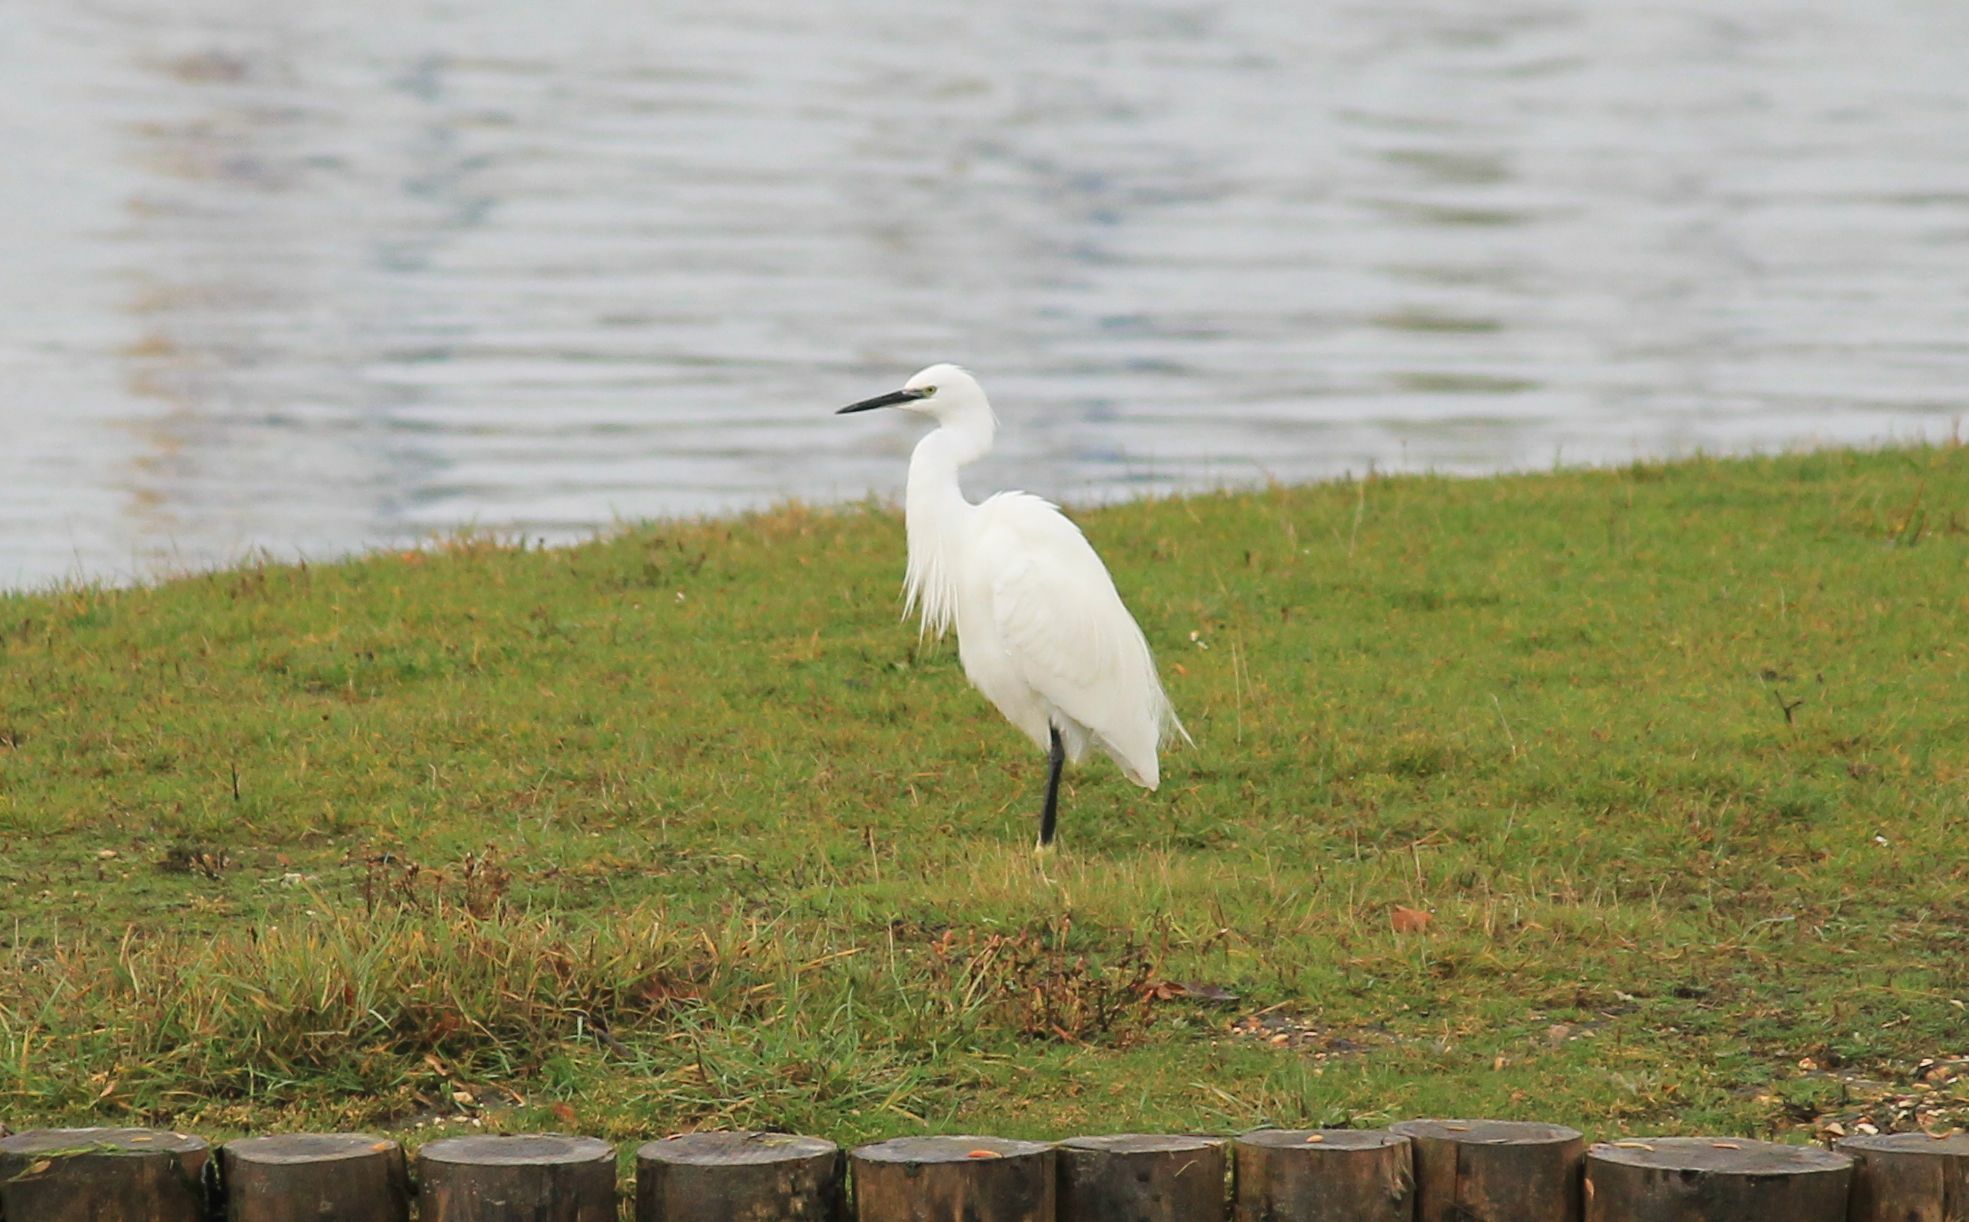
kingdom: Animalia
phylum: Chordata
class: Aves
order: Pelecaniformes
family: Ardeidae
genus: Egretta
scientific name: Egretta garzetta
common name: Little egret
